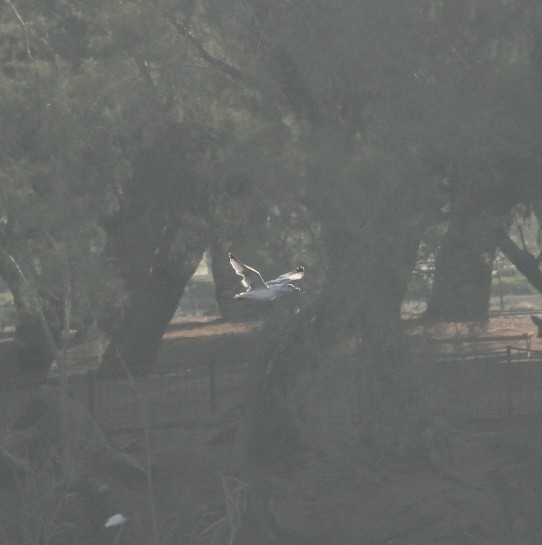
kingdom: Animalia
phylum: Chordata
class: Aves
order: Charadriiformes
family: Laridae
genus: Larus
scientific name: Larus californicus
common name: California gull
